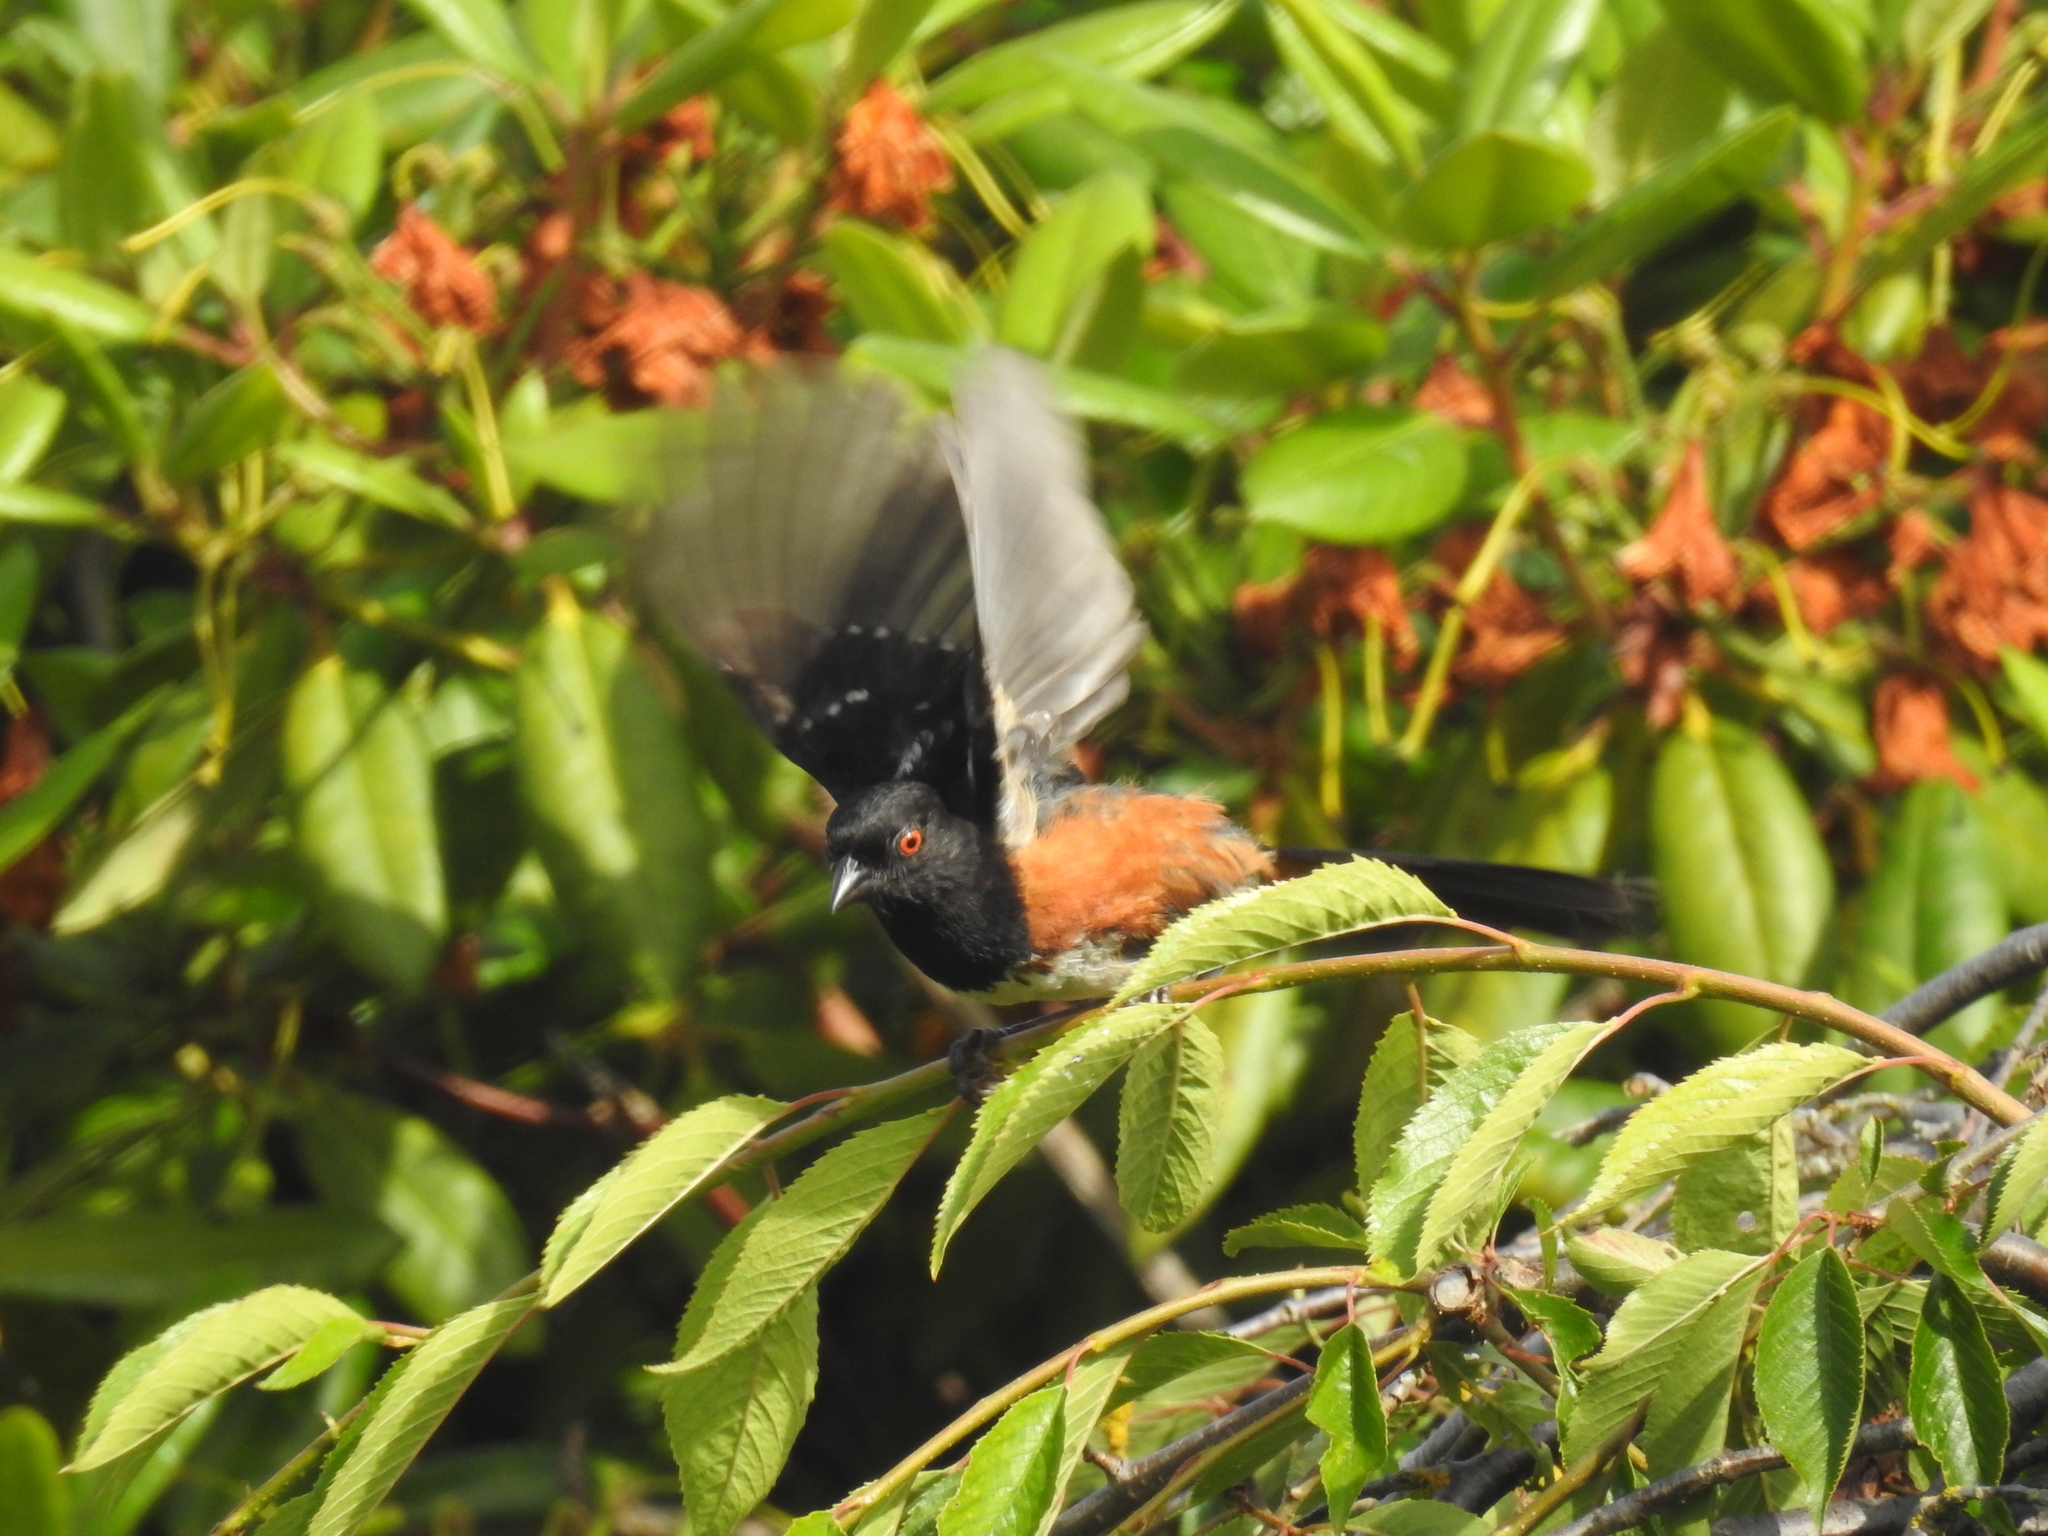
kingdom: Animalia
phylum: Chordata
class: Aves
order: Passeriformes
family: Passerellidae
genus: Pipilo
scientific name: Pipilo maculatus
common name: Spotted towhee
